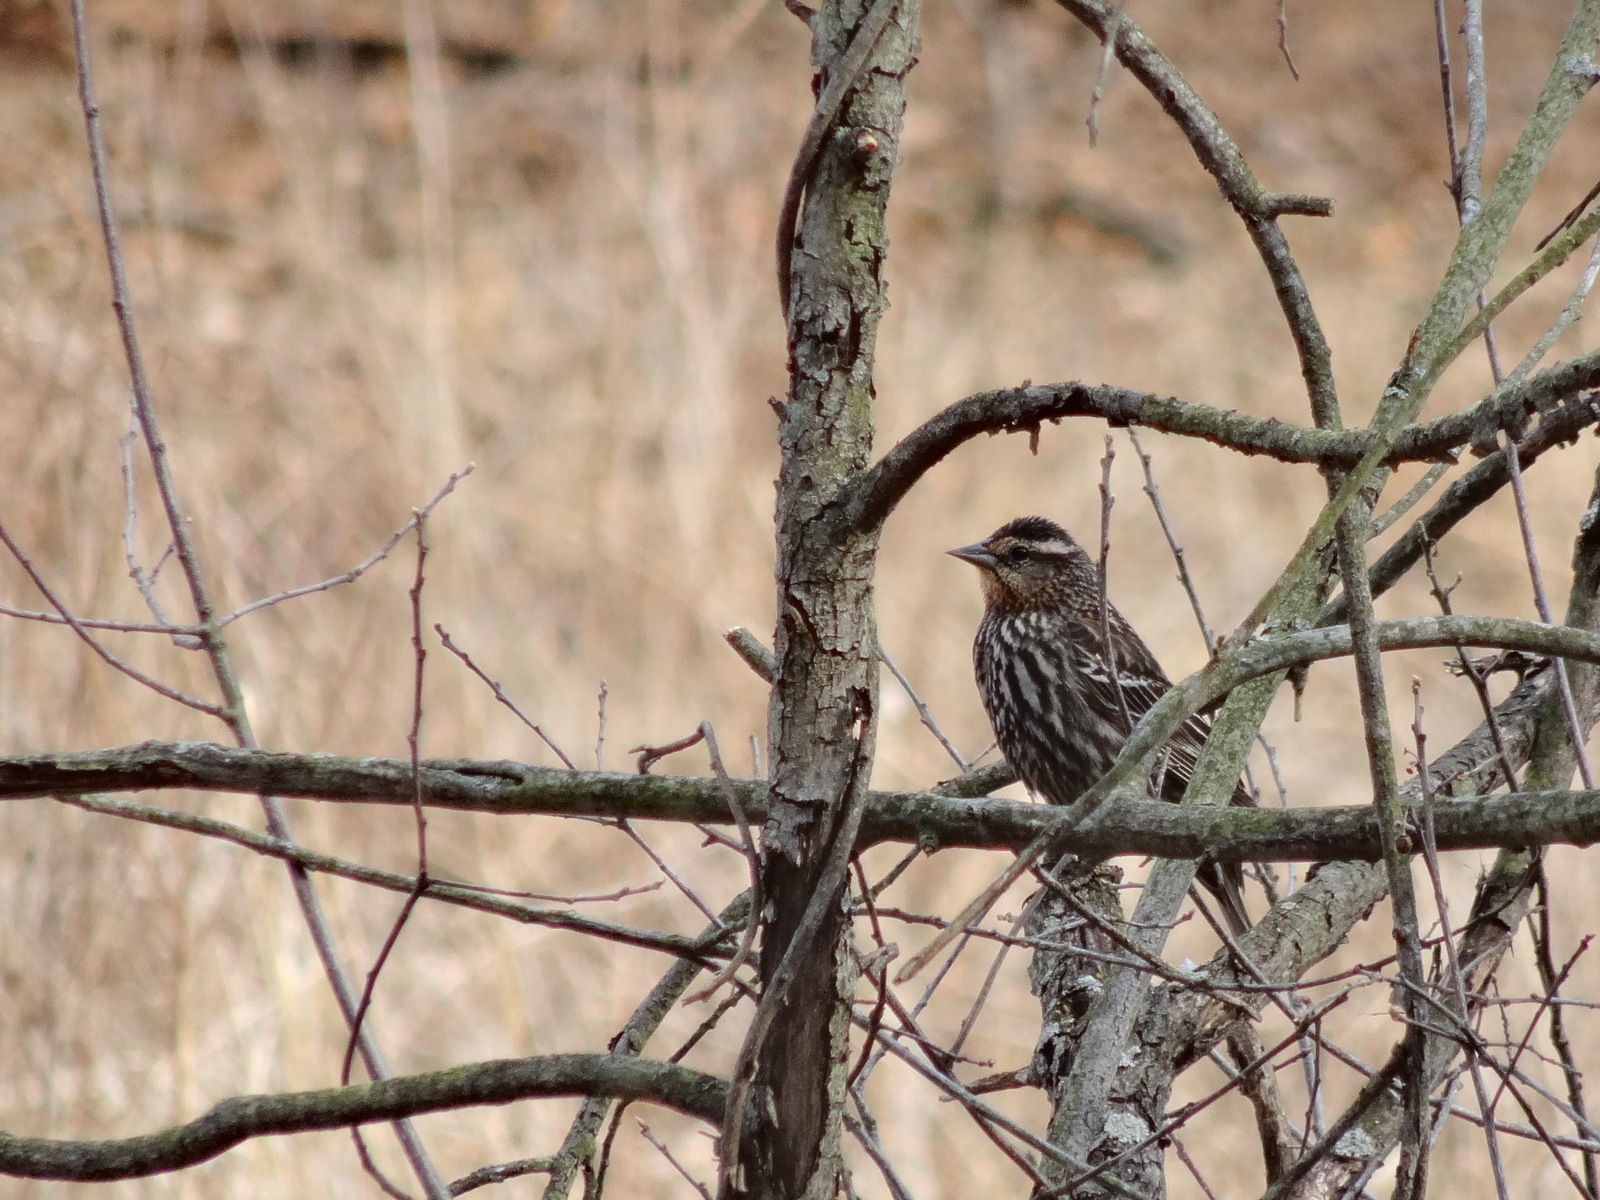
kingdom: Animalia
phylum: Chordata
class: Aves
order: Passeriformes
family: Icteridae
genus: Agelaius
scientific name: Agelaius phoeniceus
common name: Red-winged blackbird
